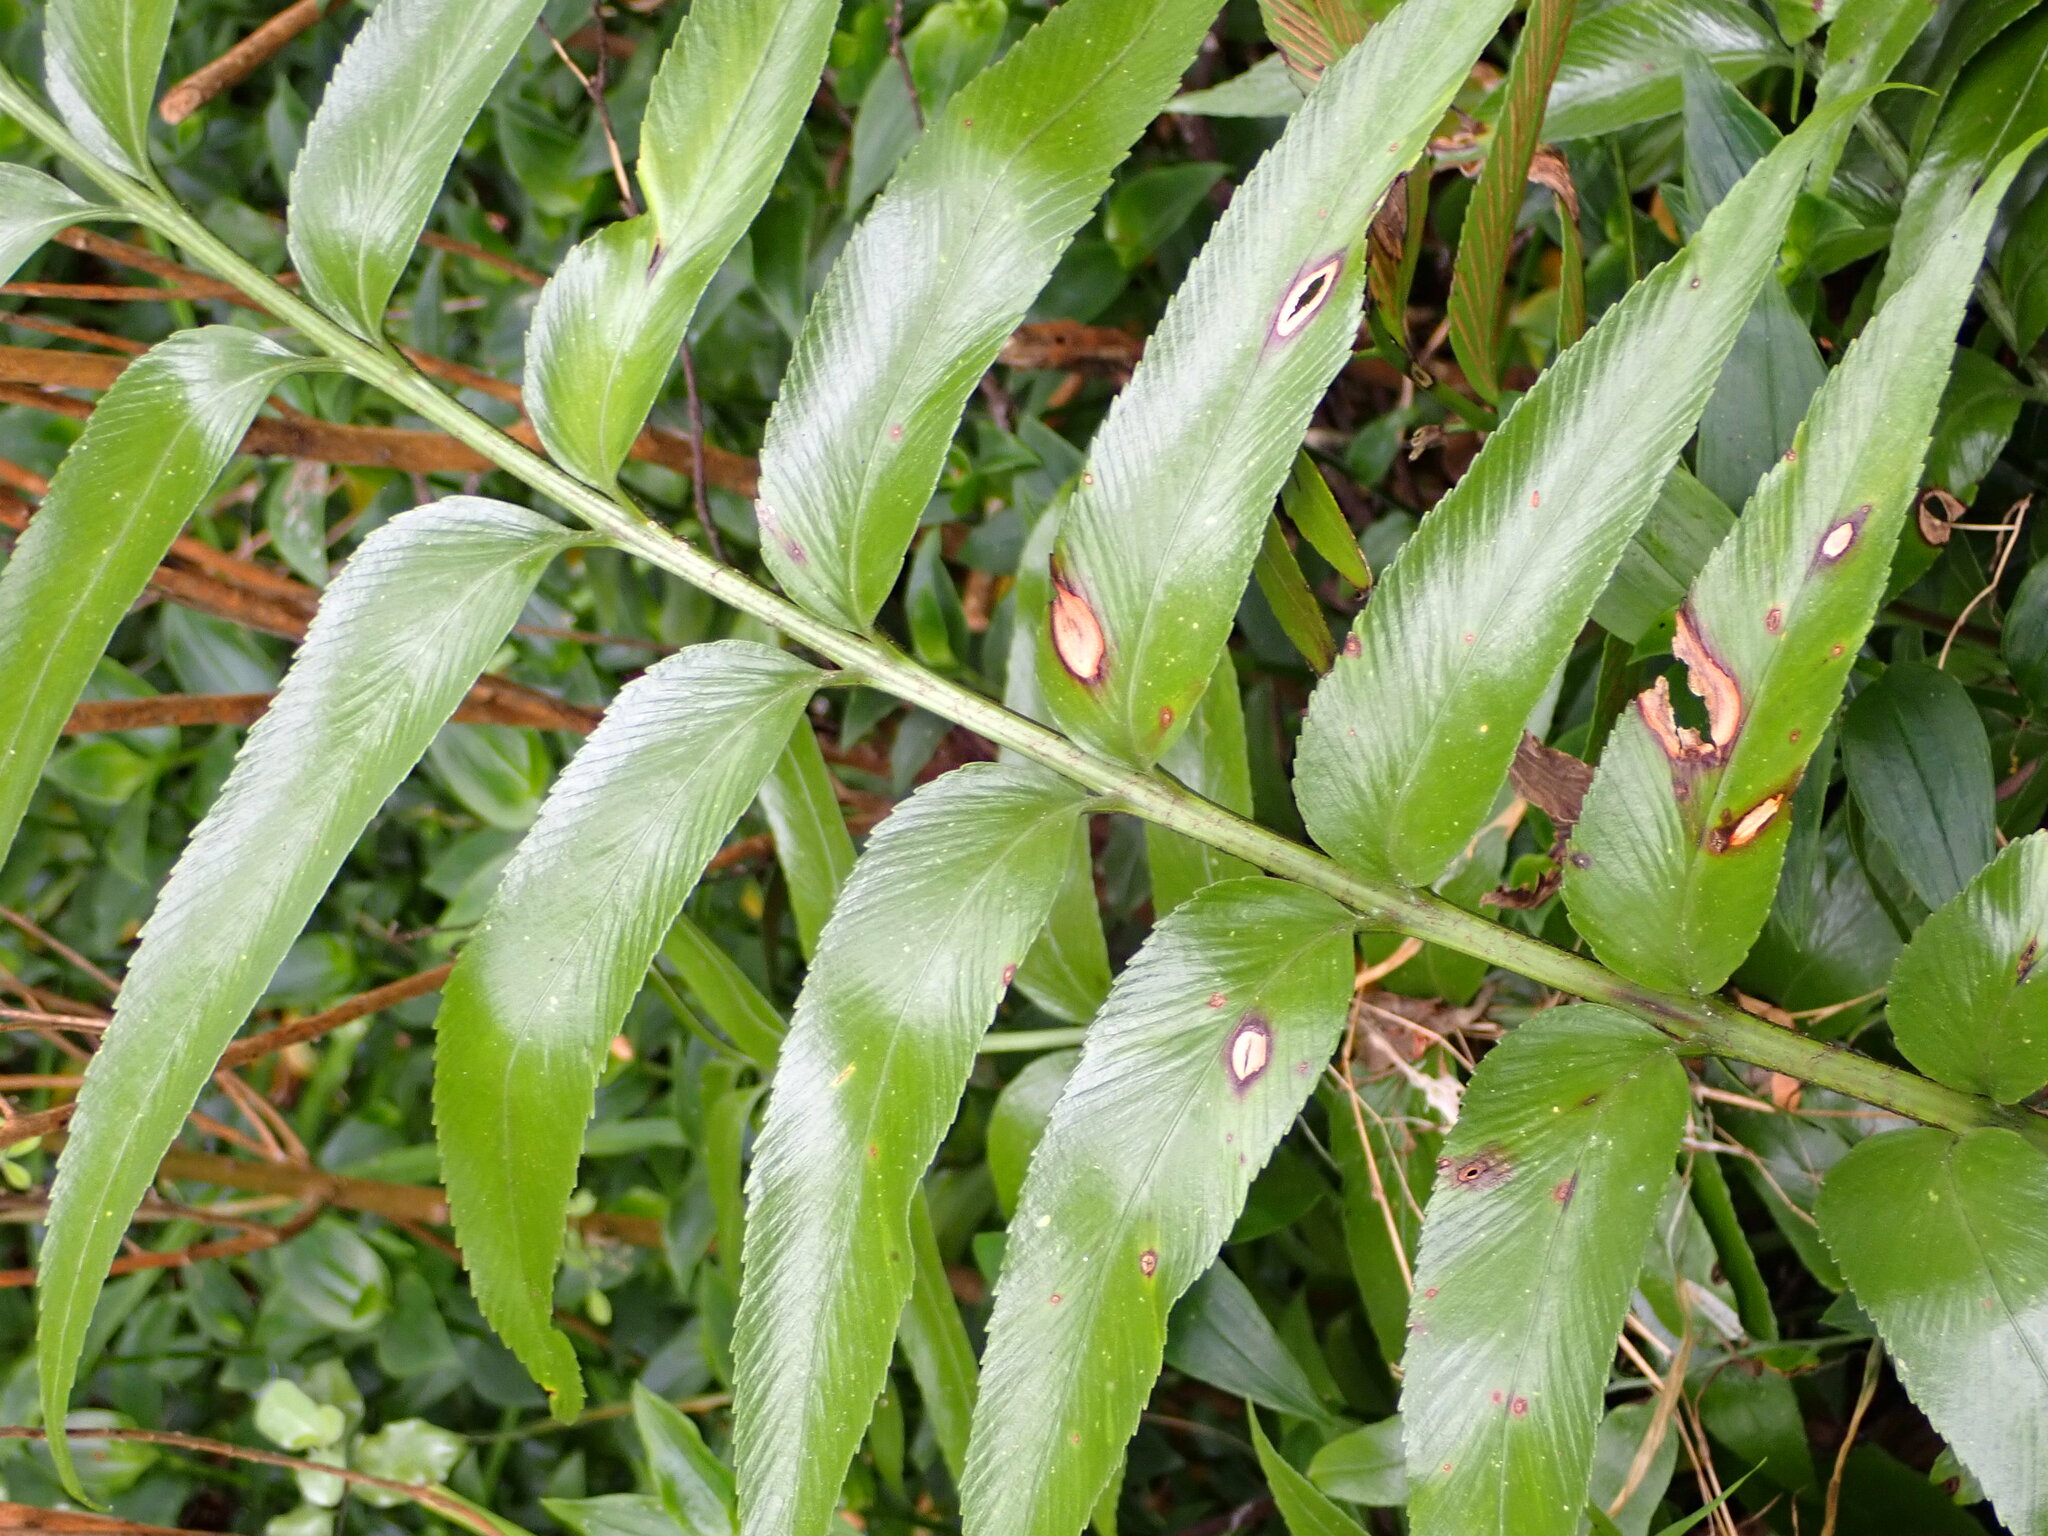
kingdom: Plantae
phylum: Tracheophyta
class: Polypodiopsida
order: Polypodiales
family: Aspleniaceae
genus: Asplenium
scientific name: Asplenium oblongifolium
